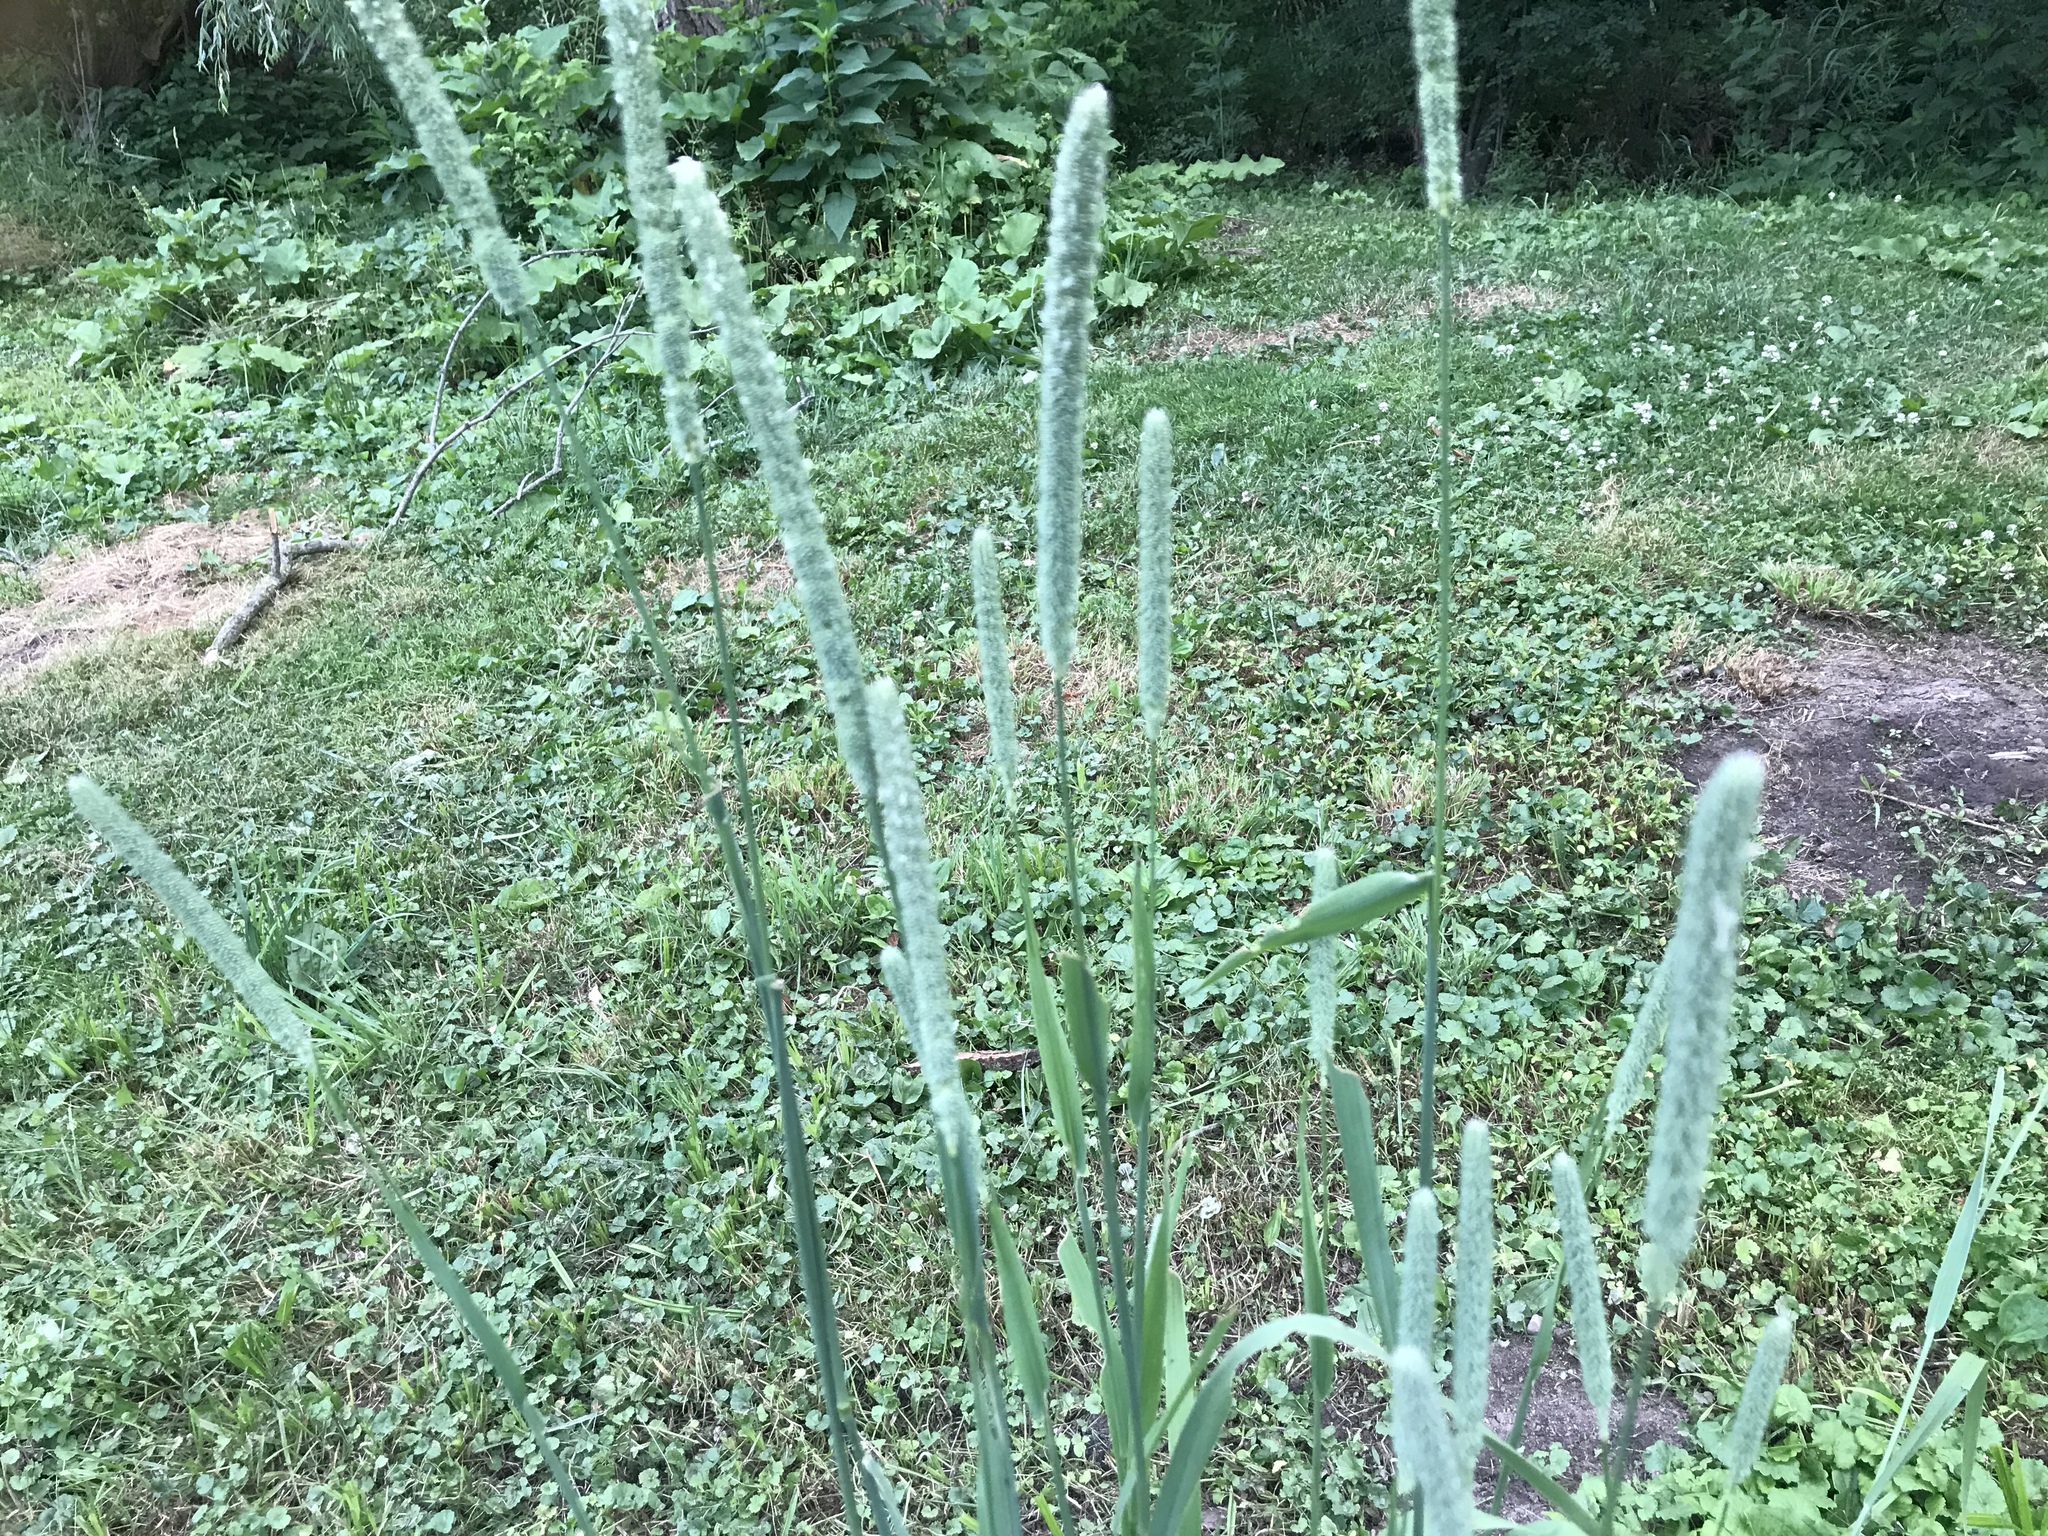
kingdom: Plantae
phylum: Tracheophyta
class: Liliopsida
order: Poales
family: Poaceae
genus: Phleum
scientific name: Phleum pratense
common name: Timothy grass
